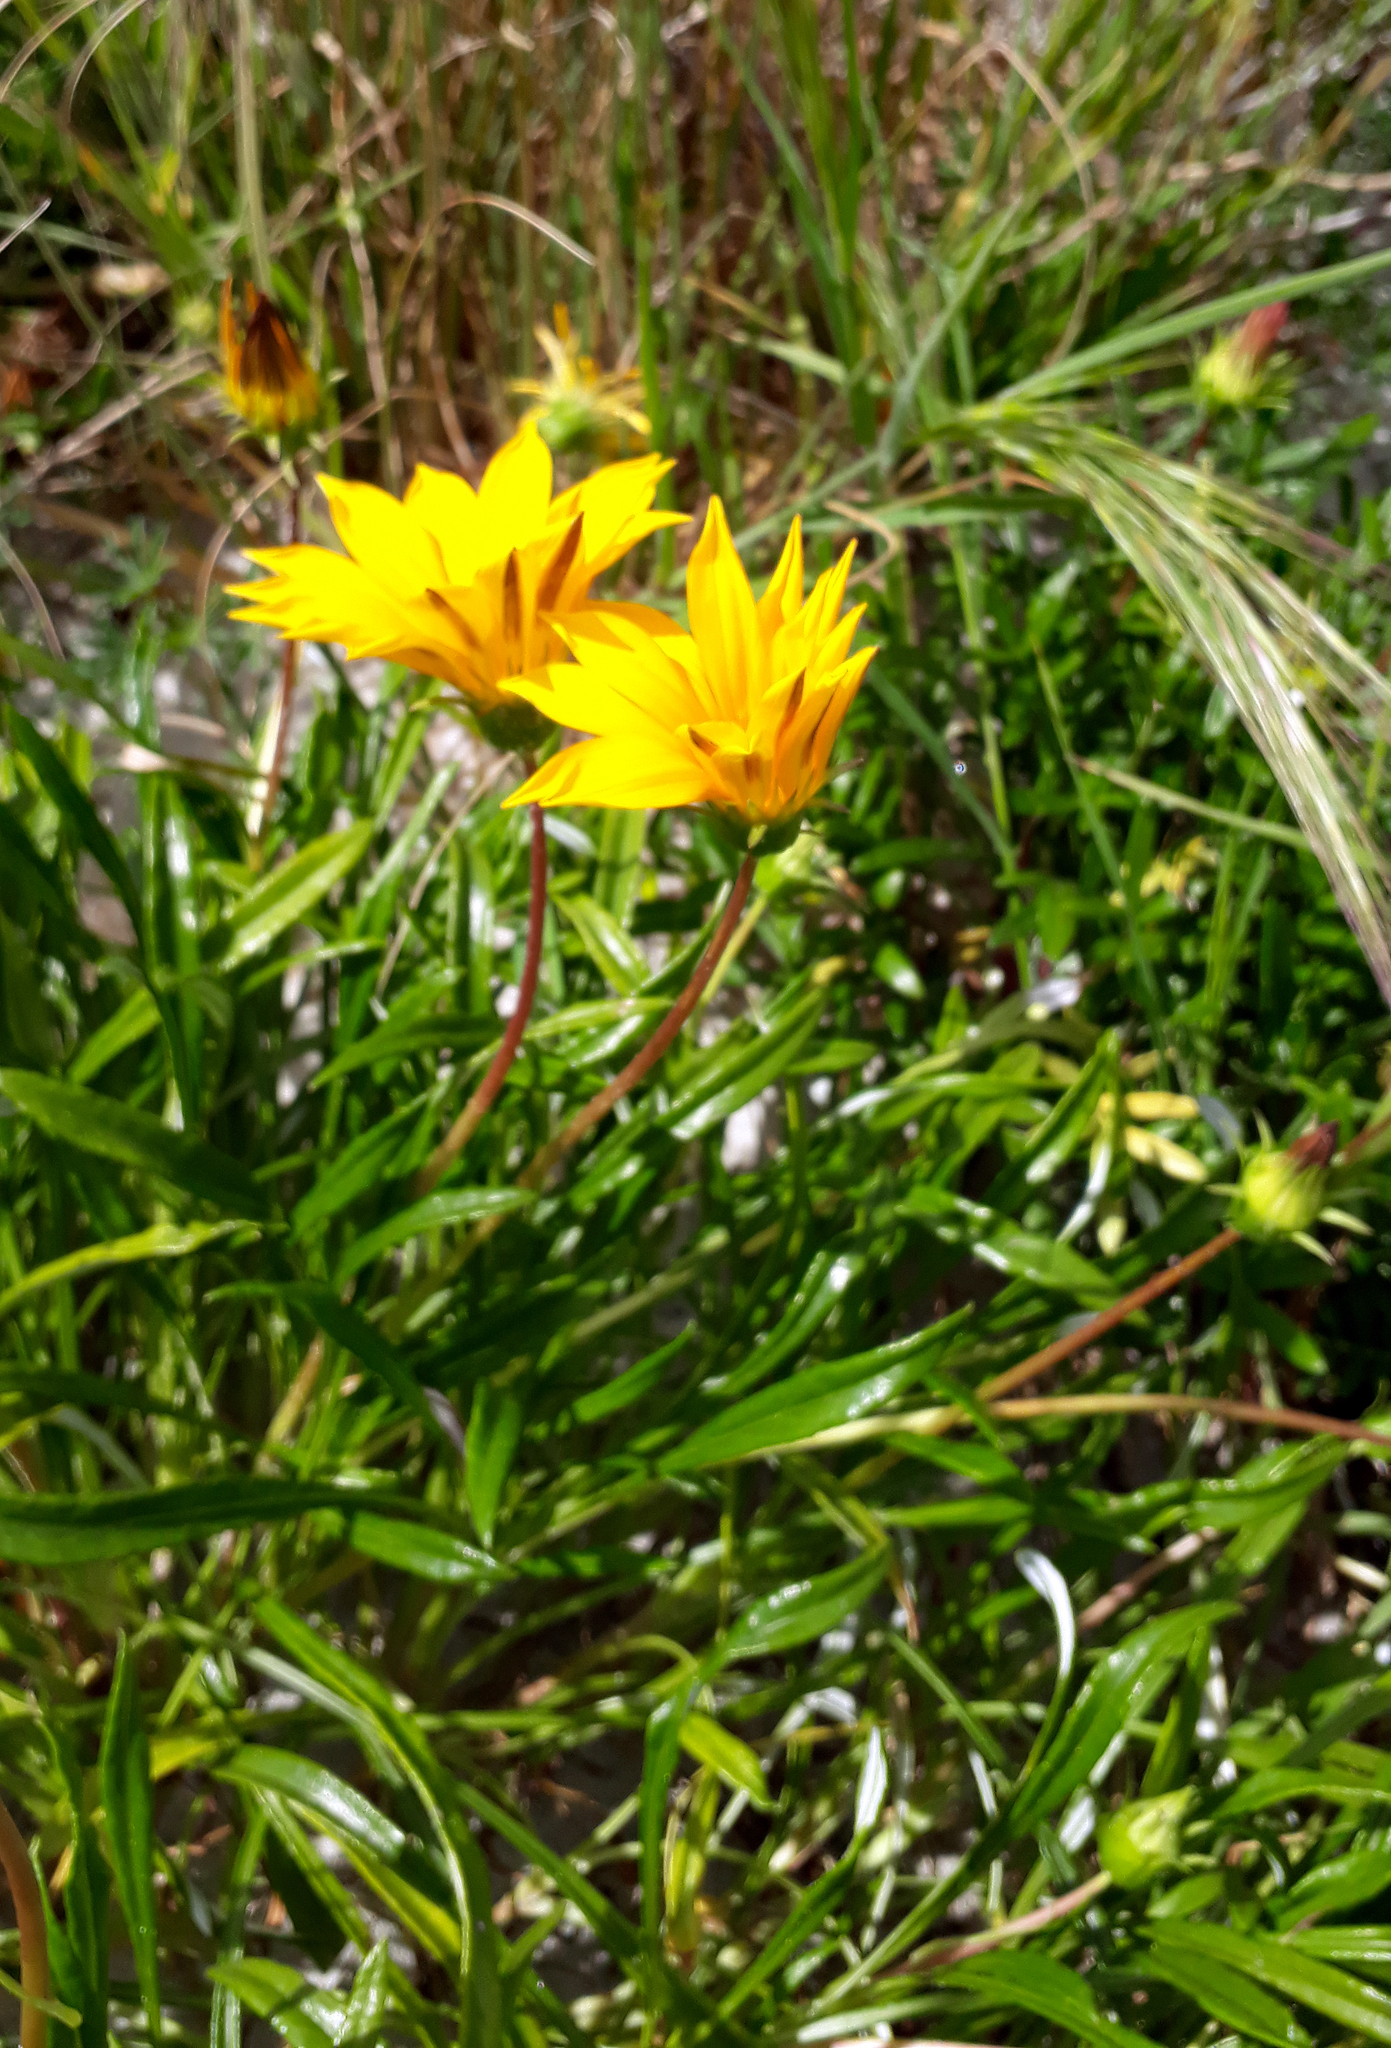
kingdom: Plantae
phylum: Tracheophyta
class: Magnoliopsida
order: Asterales
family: Asteraceae
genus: Gazania
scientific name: Gazania rigens
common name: Treasureflower
